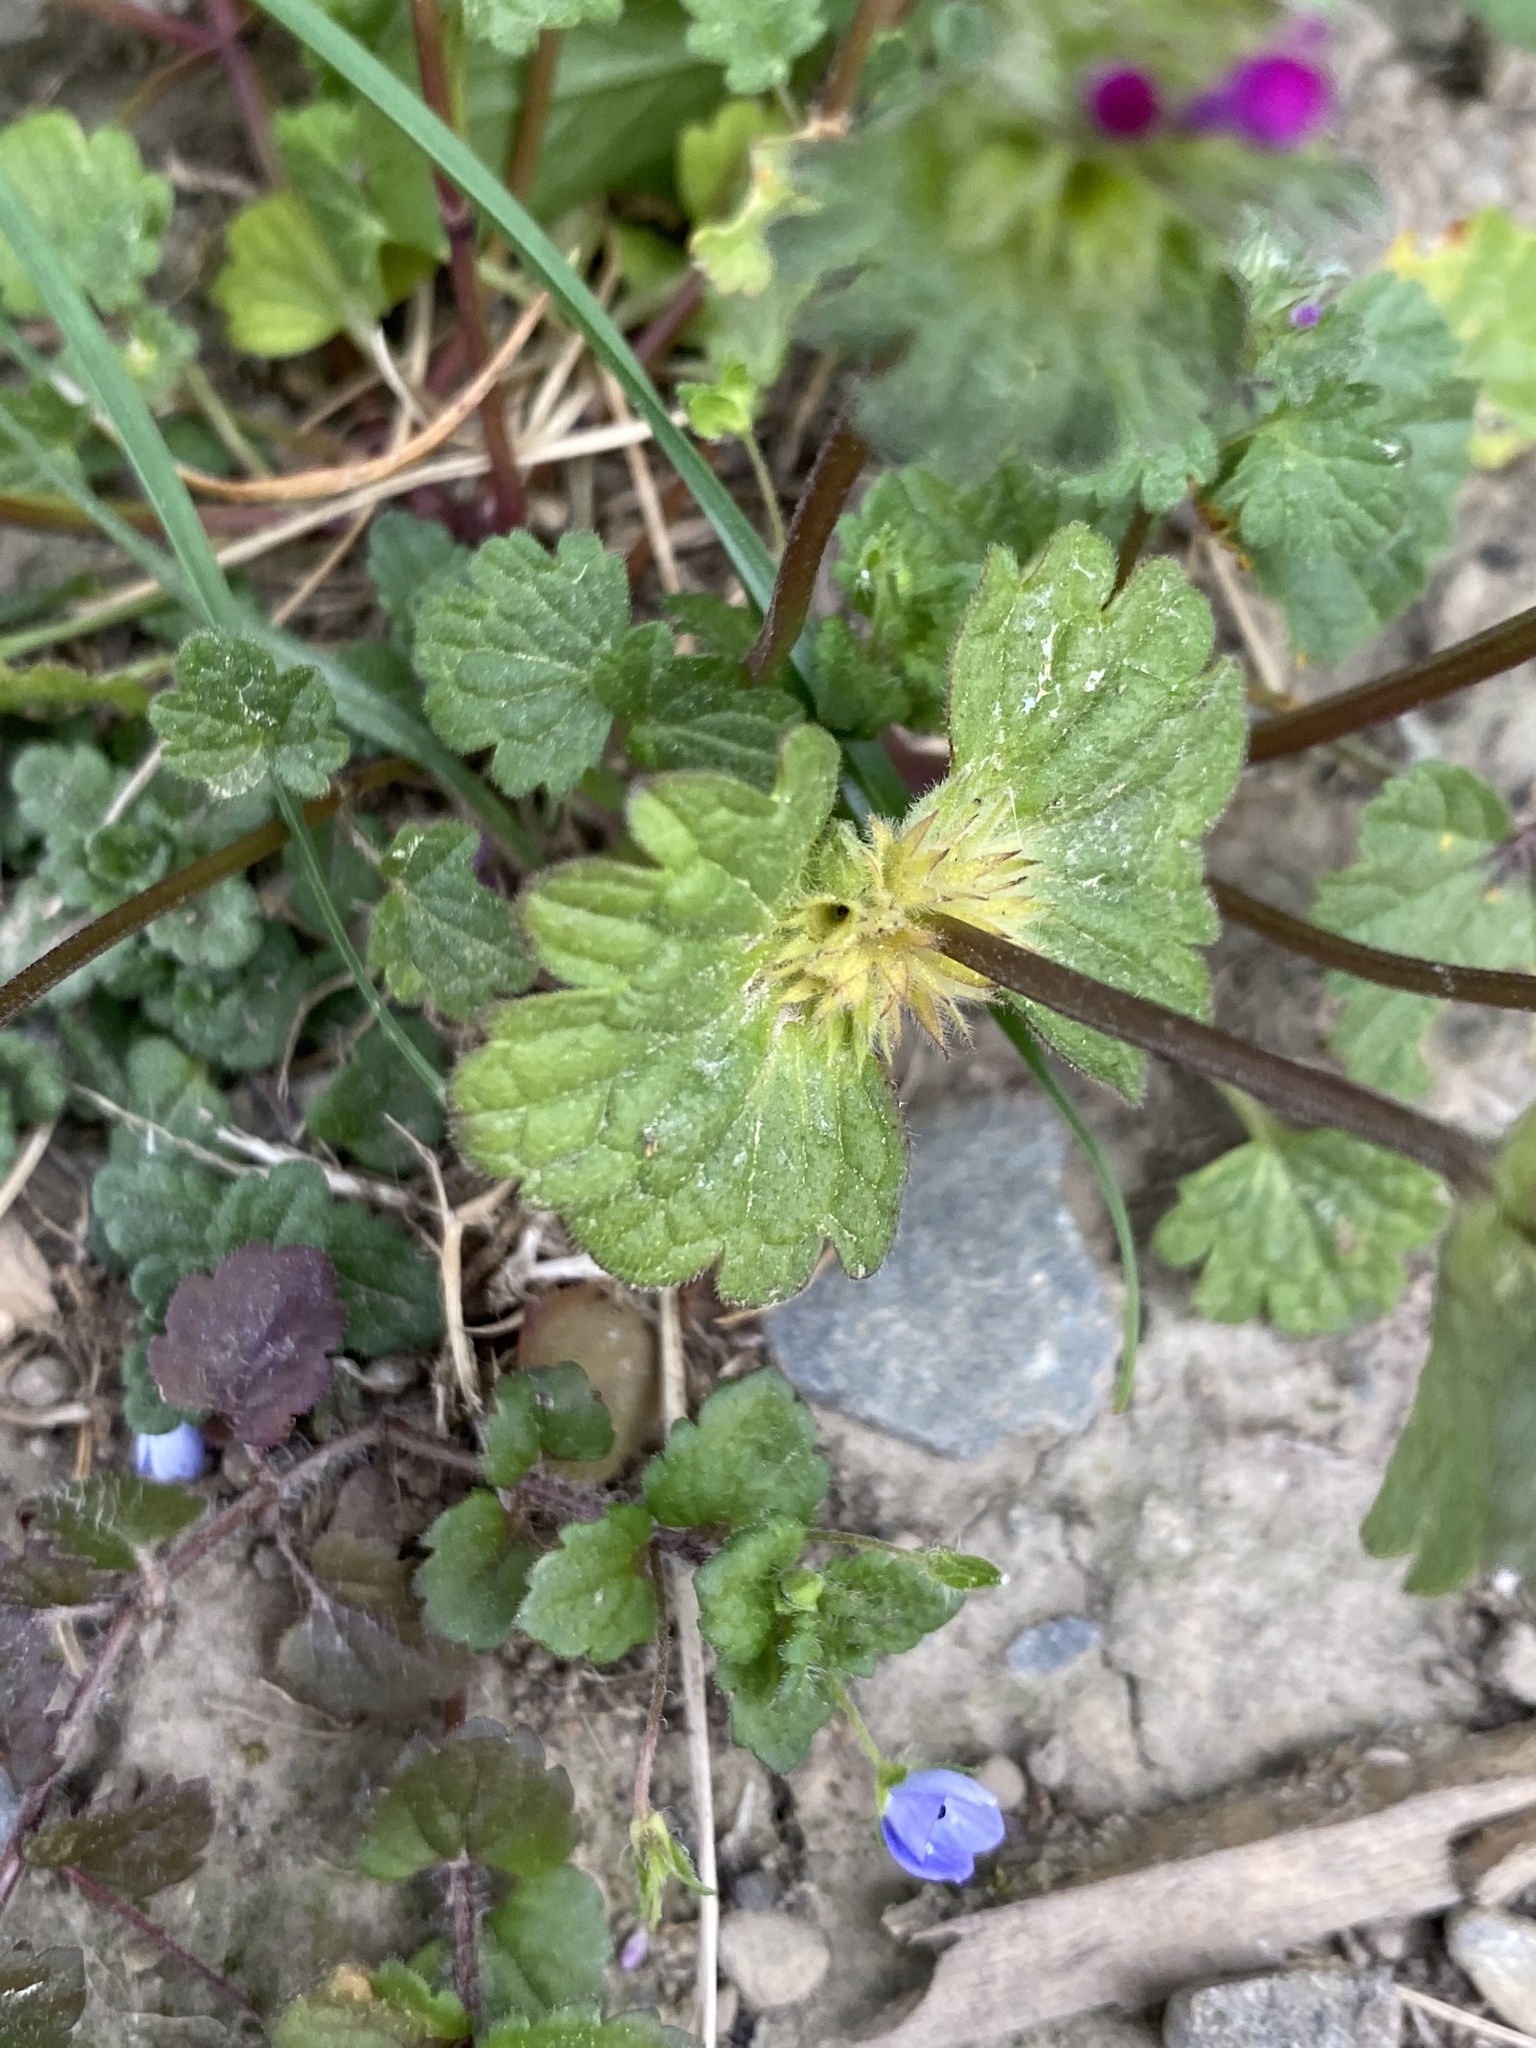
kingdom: Plantae
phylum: Tracheophyta
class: Magnoliopsida
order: Lamiales
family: Lamiaceae
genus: Lamium
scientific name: Lamium amplexicaule
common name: Henbit dead-nettle
